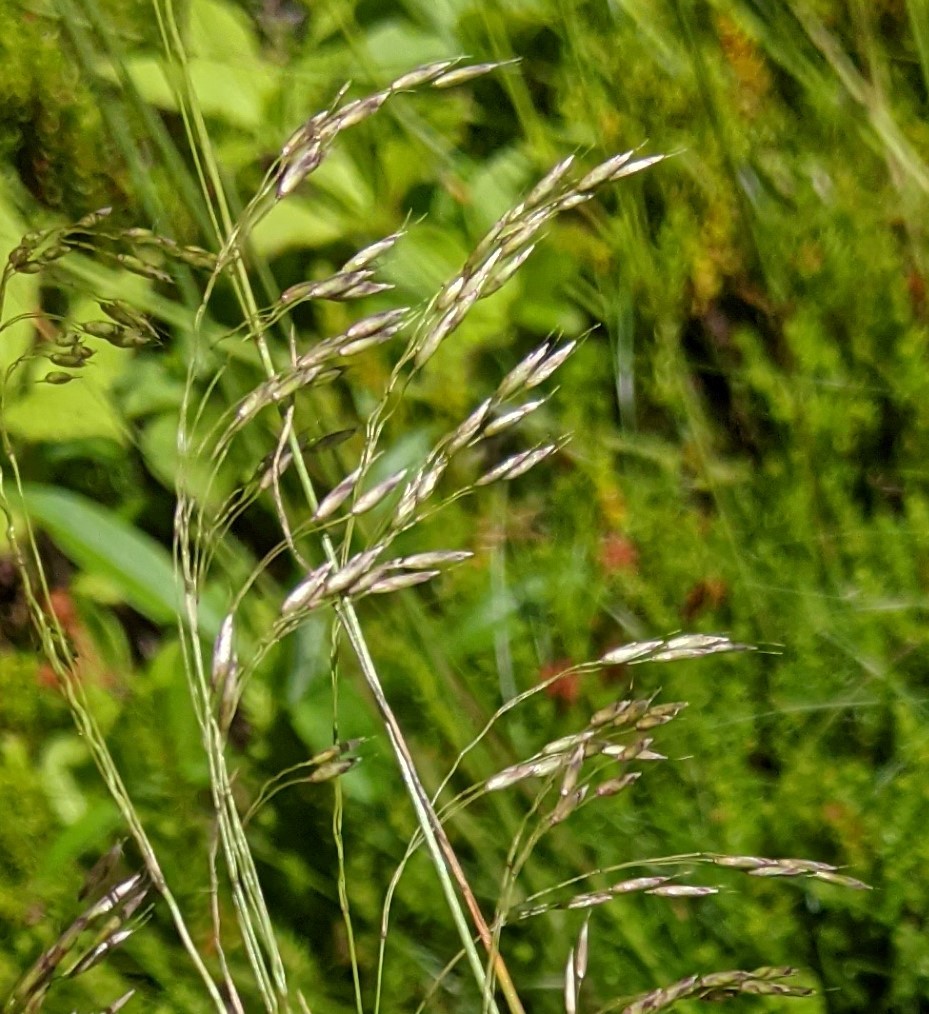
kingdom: Plantae
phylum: Tracheophyta
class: Liliopsida
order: Poales
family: Poaceae
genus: Avenella
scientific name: Avenella flexuosa
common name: Wavy hairgrass
